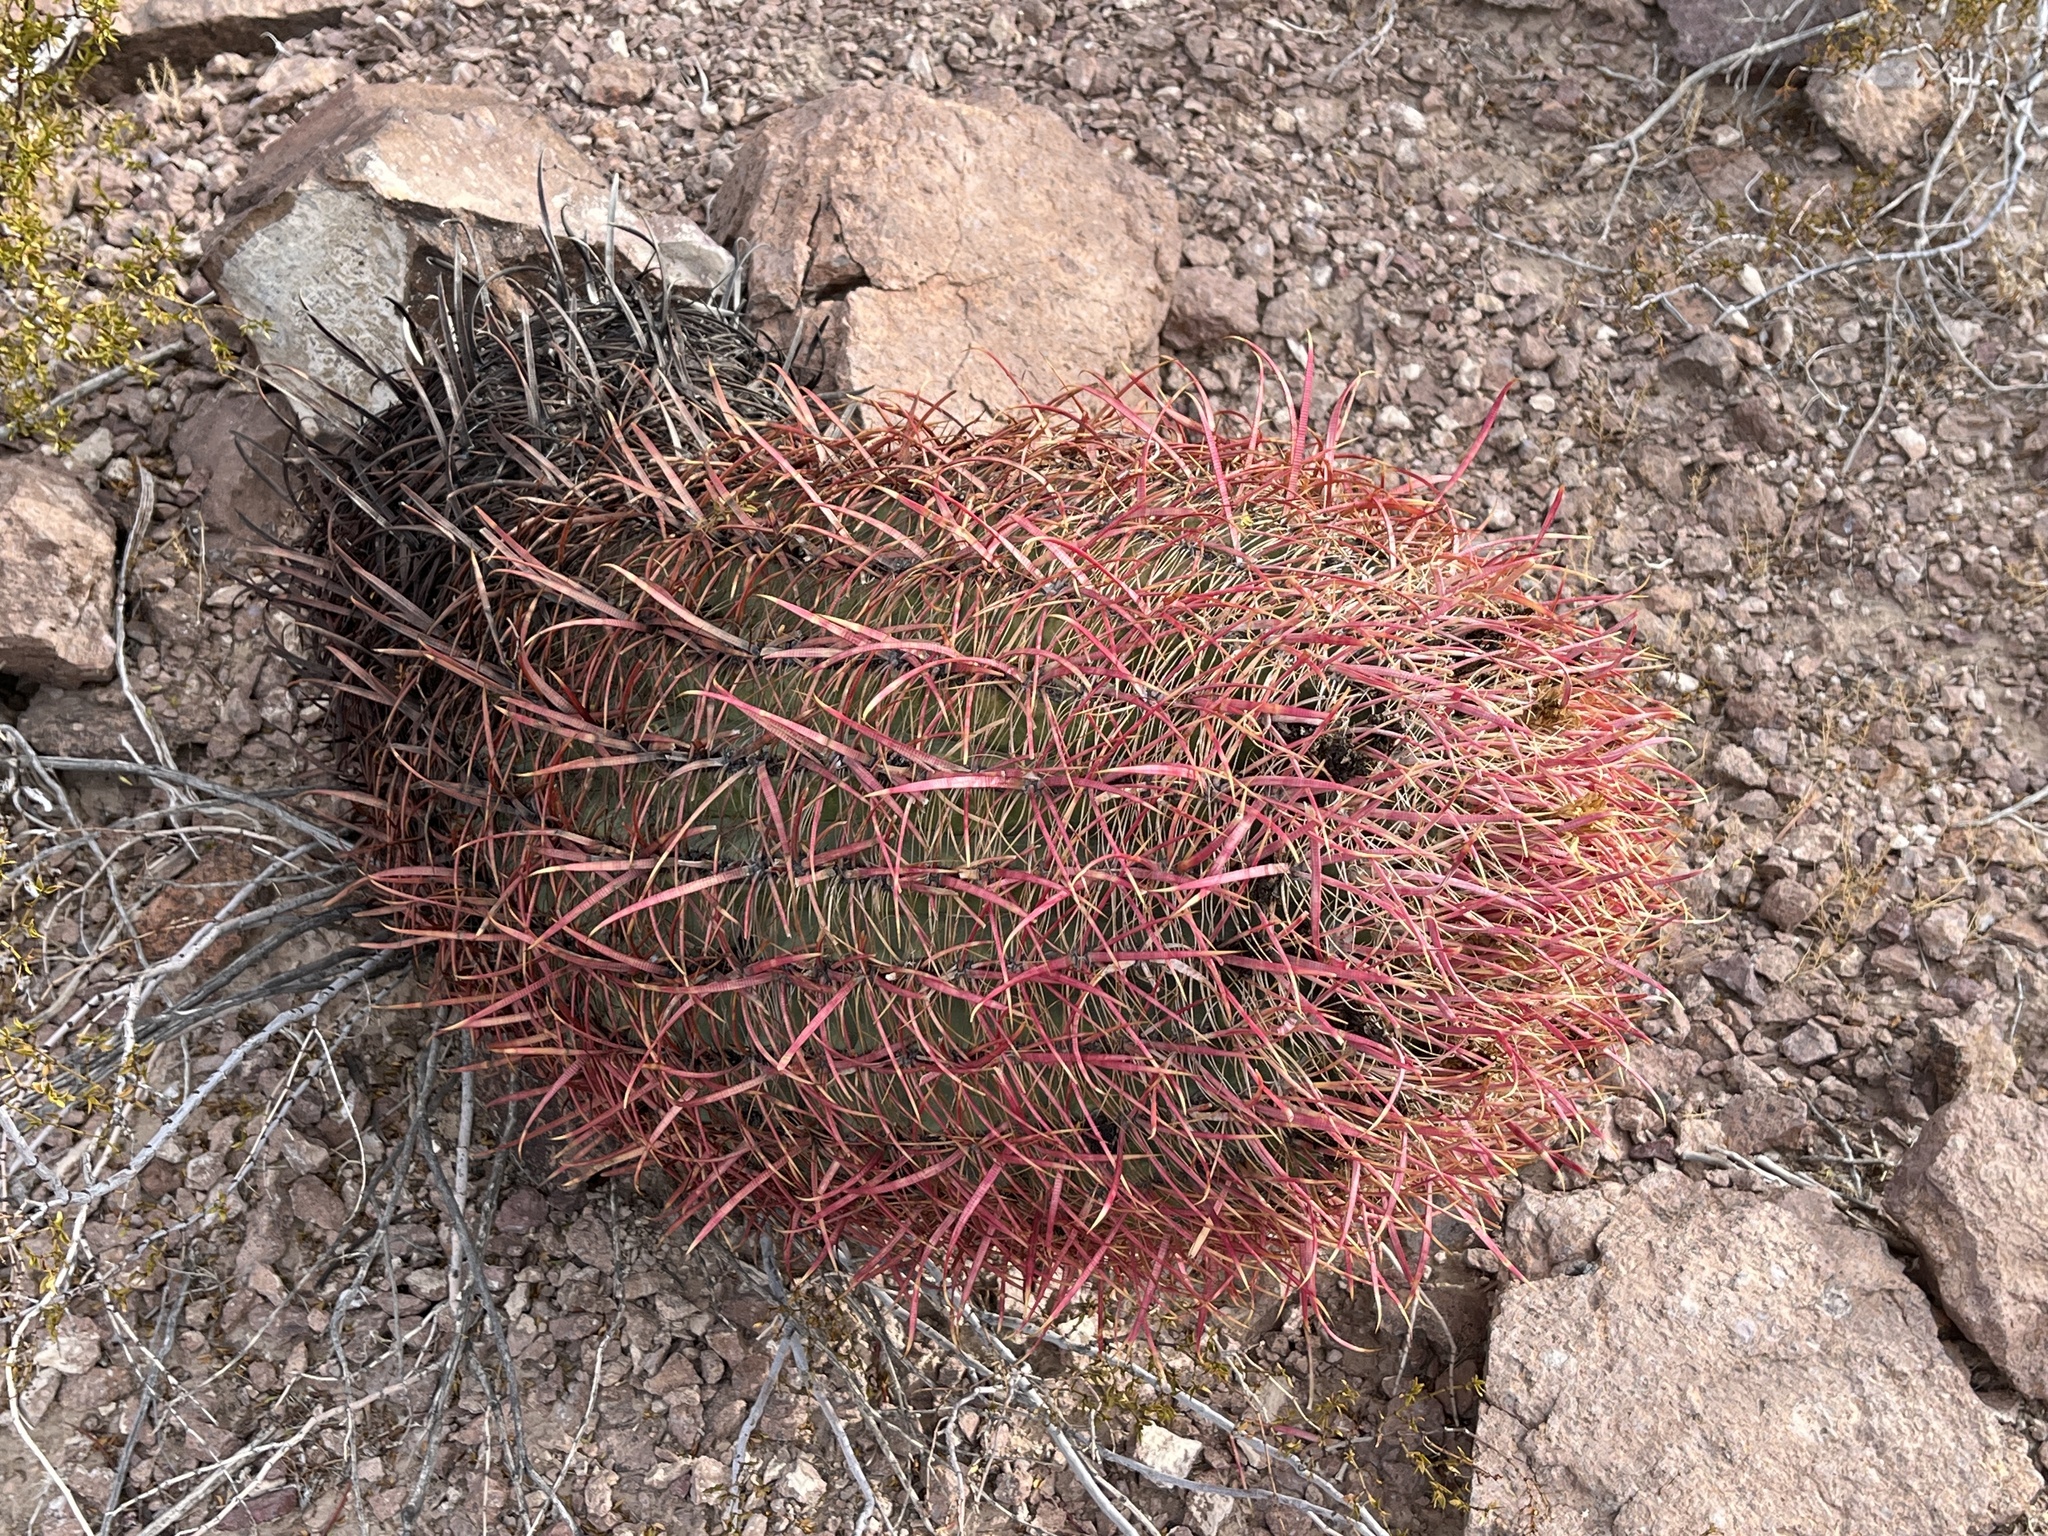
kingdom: Plantae
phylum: Tracheophyta
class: Magnoliopsida
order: Caryophyllales
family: Cactaceae
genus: Ferocactus
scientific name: Ferocactus cylindraceus
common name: California barrel cactus
